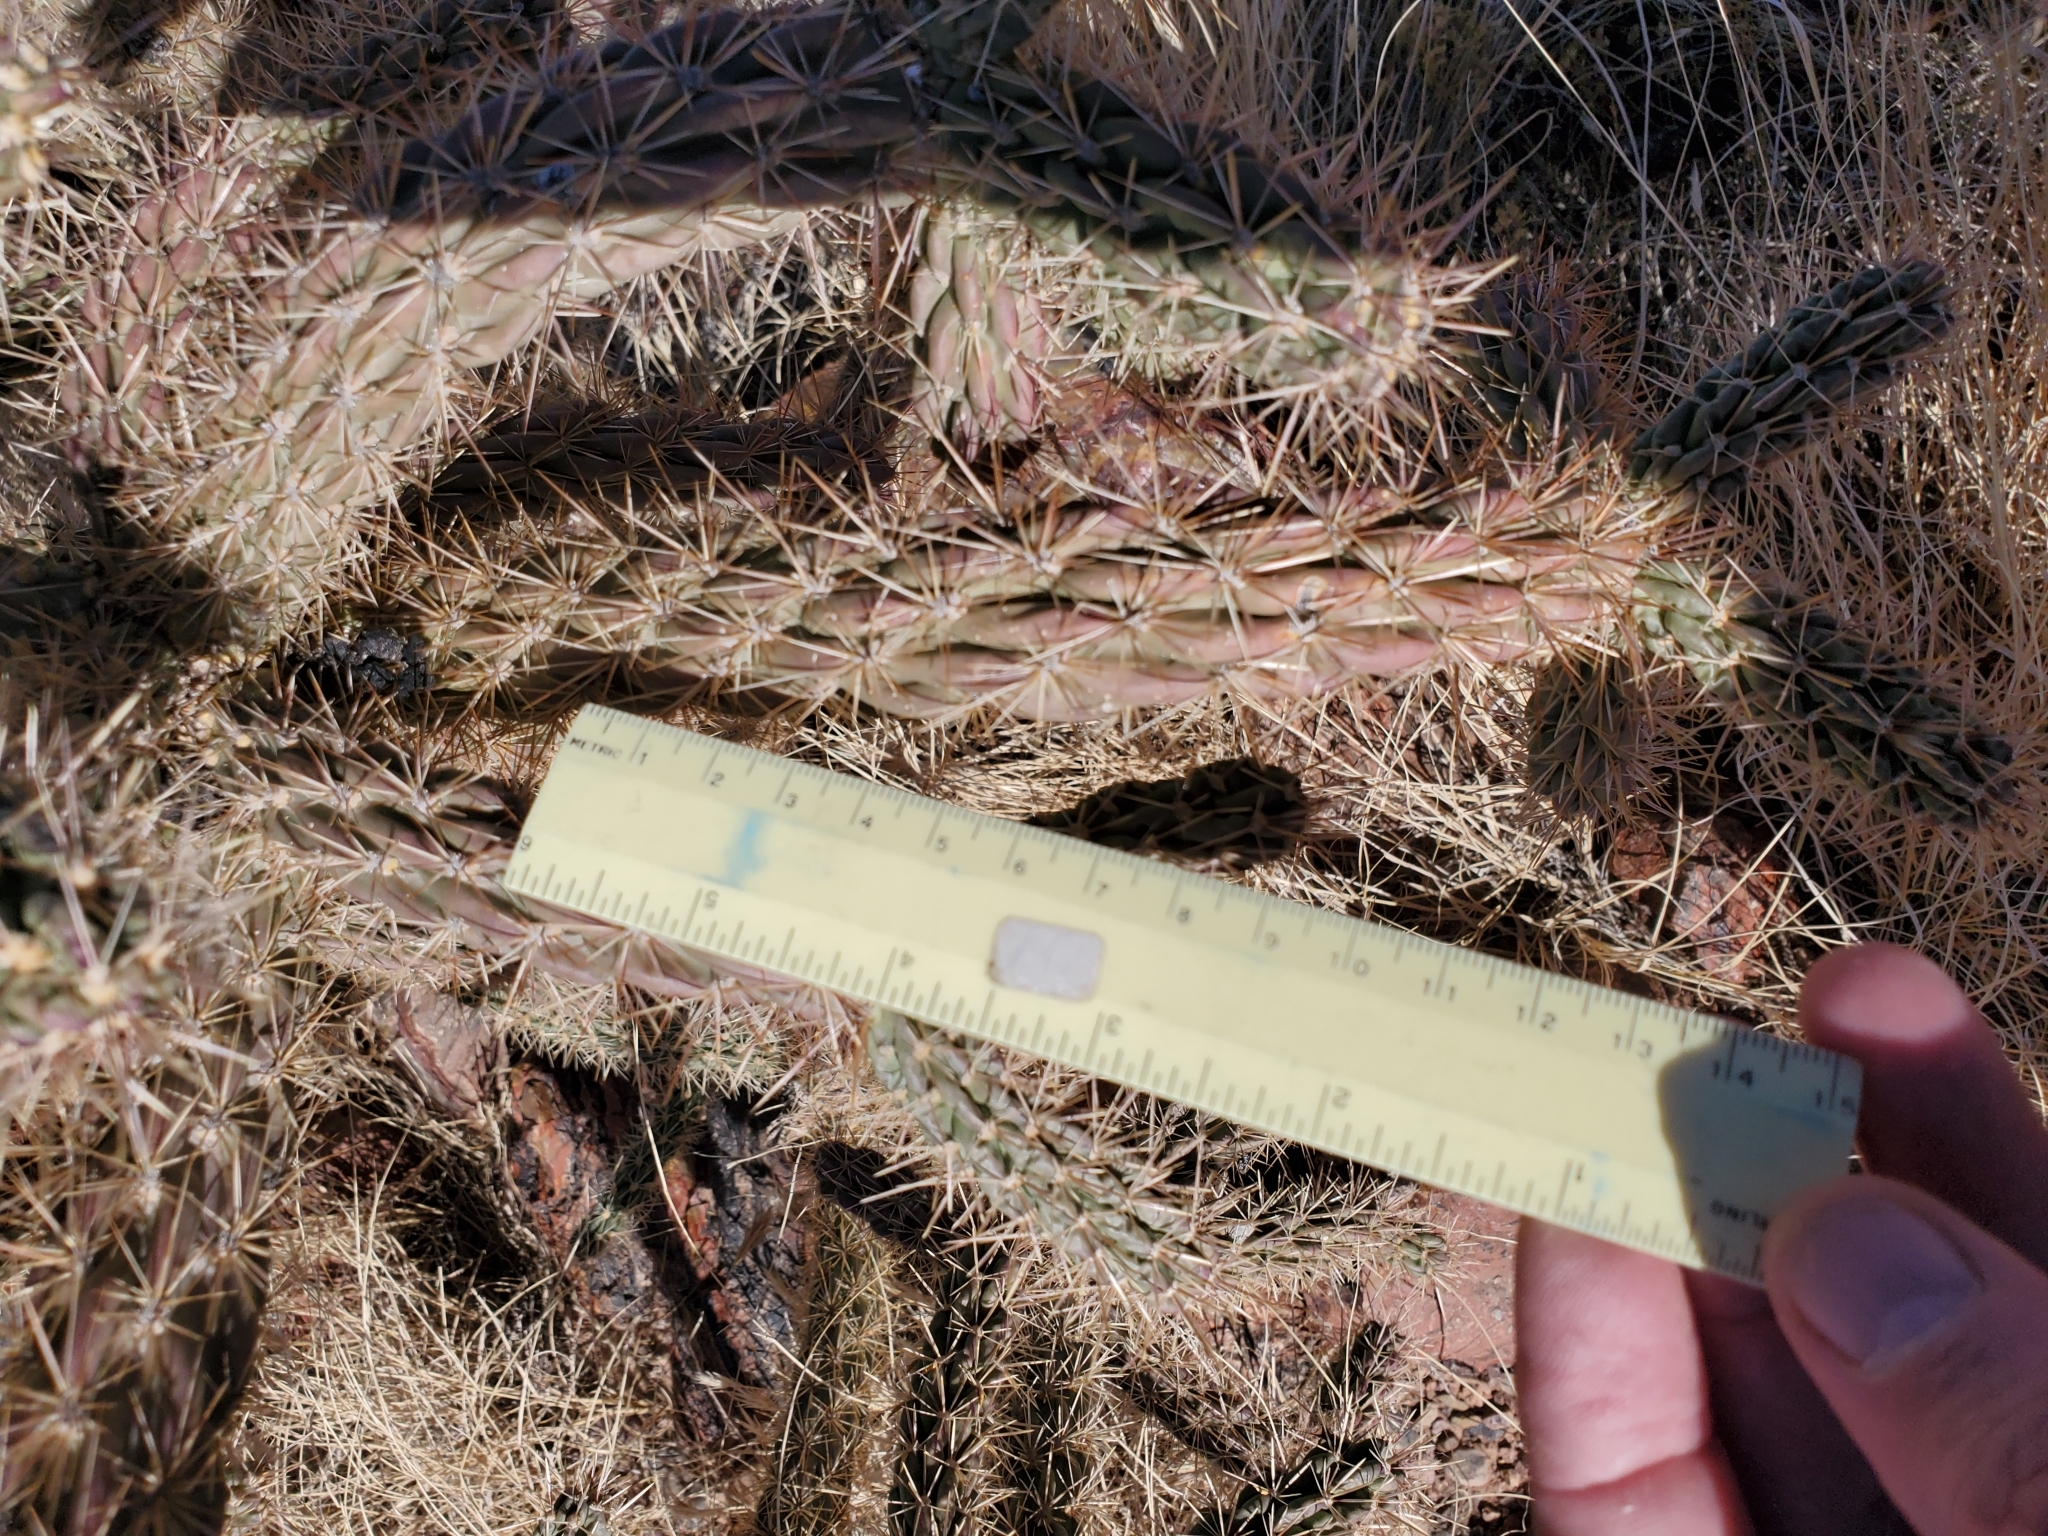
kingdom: Plantae
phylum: Tracheophyta
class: Magnoliopsida
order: Caryophyllales
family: Cactaceae
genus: Cylindropuntia
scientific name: Cylindropuntia imbricata
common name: Candelabrum cactus
